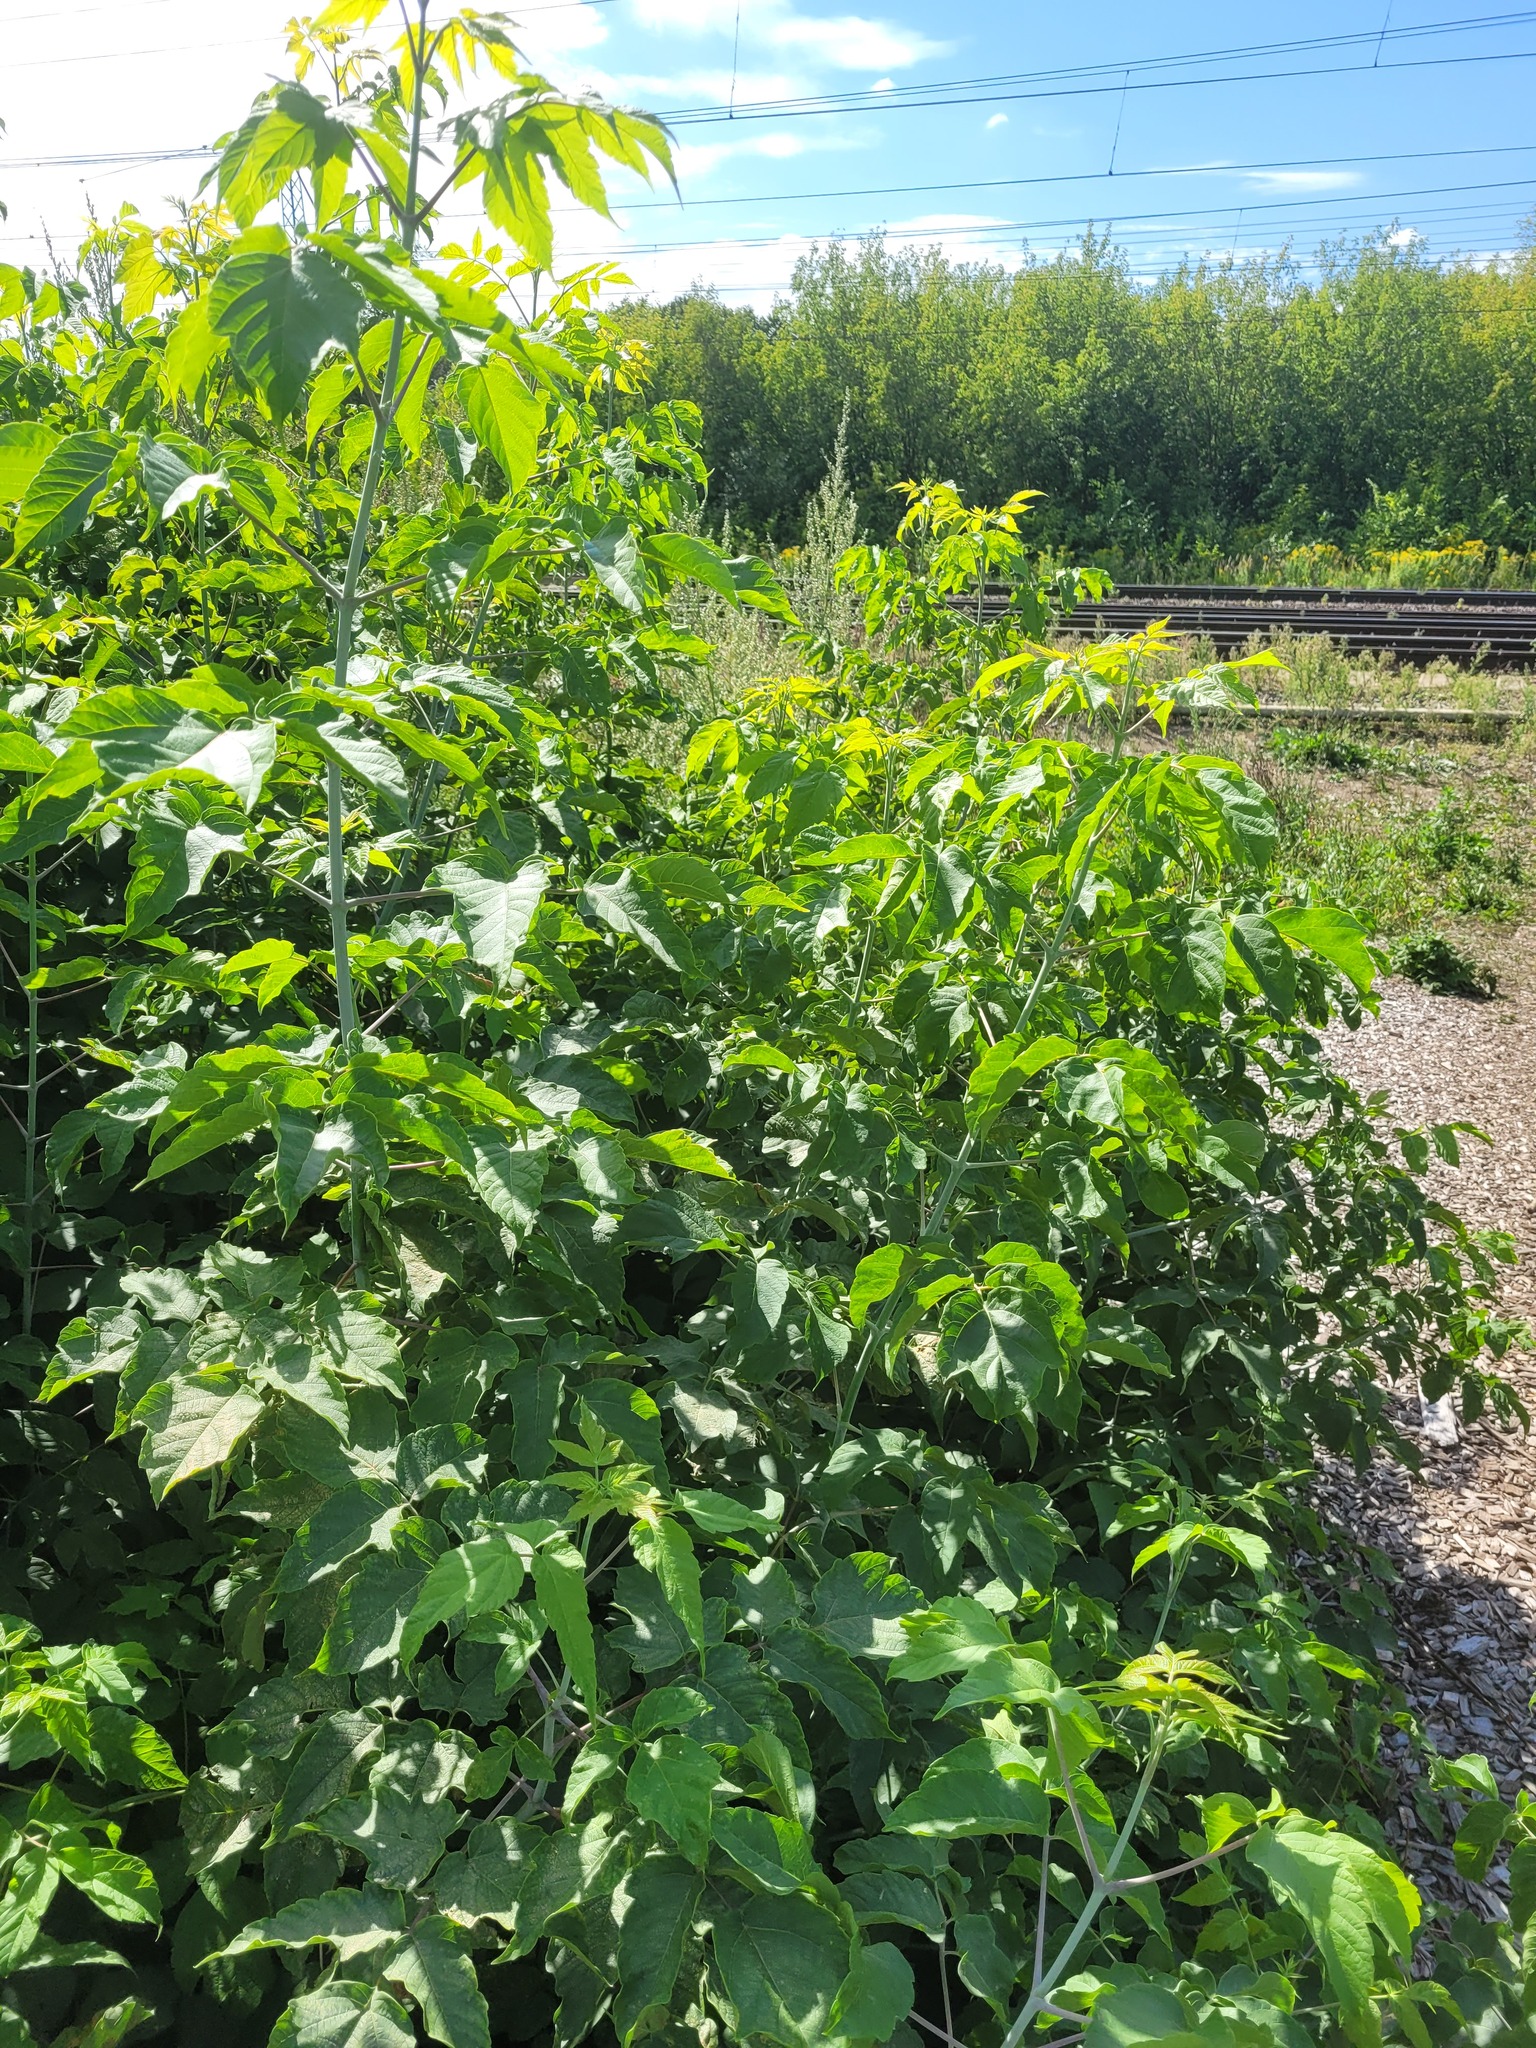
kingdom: Plantae
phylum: Tracheophyta
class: Magnoliopsida
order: Sapindales
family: Sapindaceae
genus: Acer
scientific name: Acer negundo
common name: Ashleaf maple
